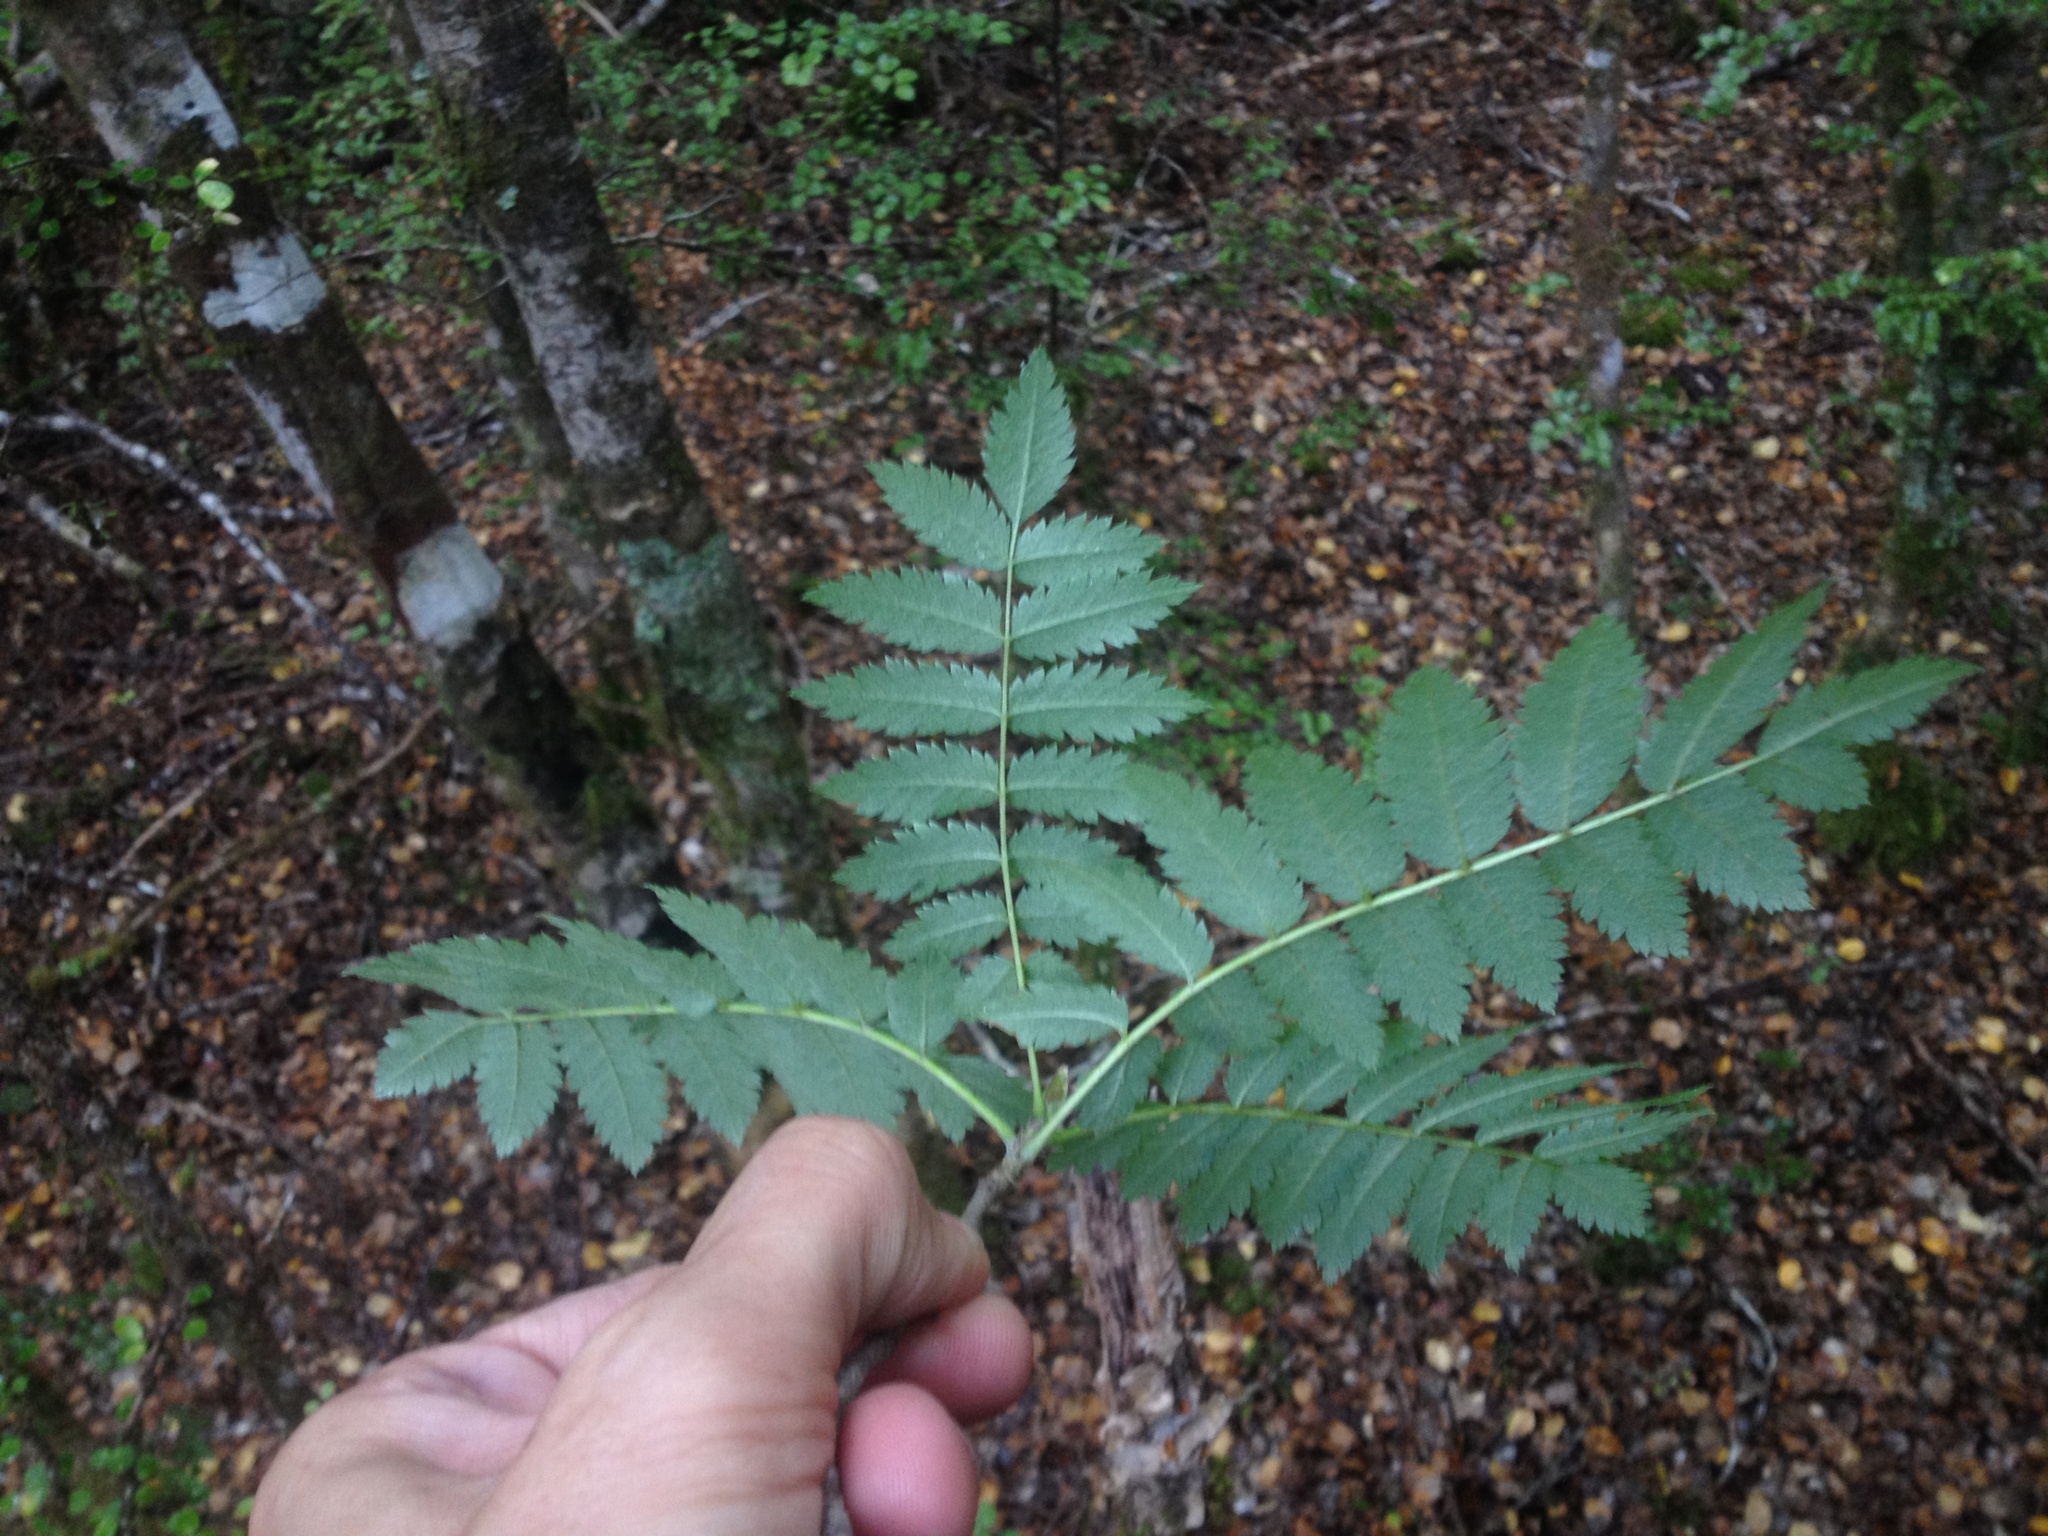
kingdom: Plantae
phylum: Tracheophyta
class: Magnoliopsida
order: Rosales
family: Rosaceae
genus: Sorbus
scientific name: Sorbus aucuparia
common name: Rowan
